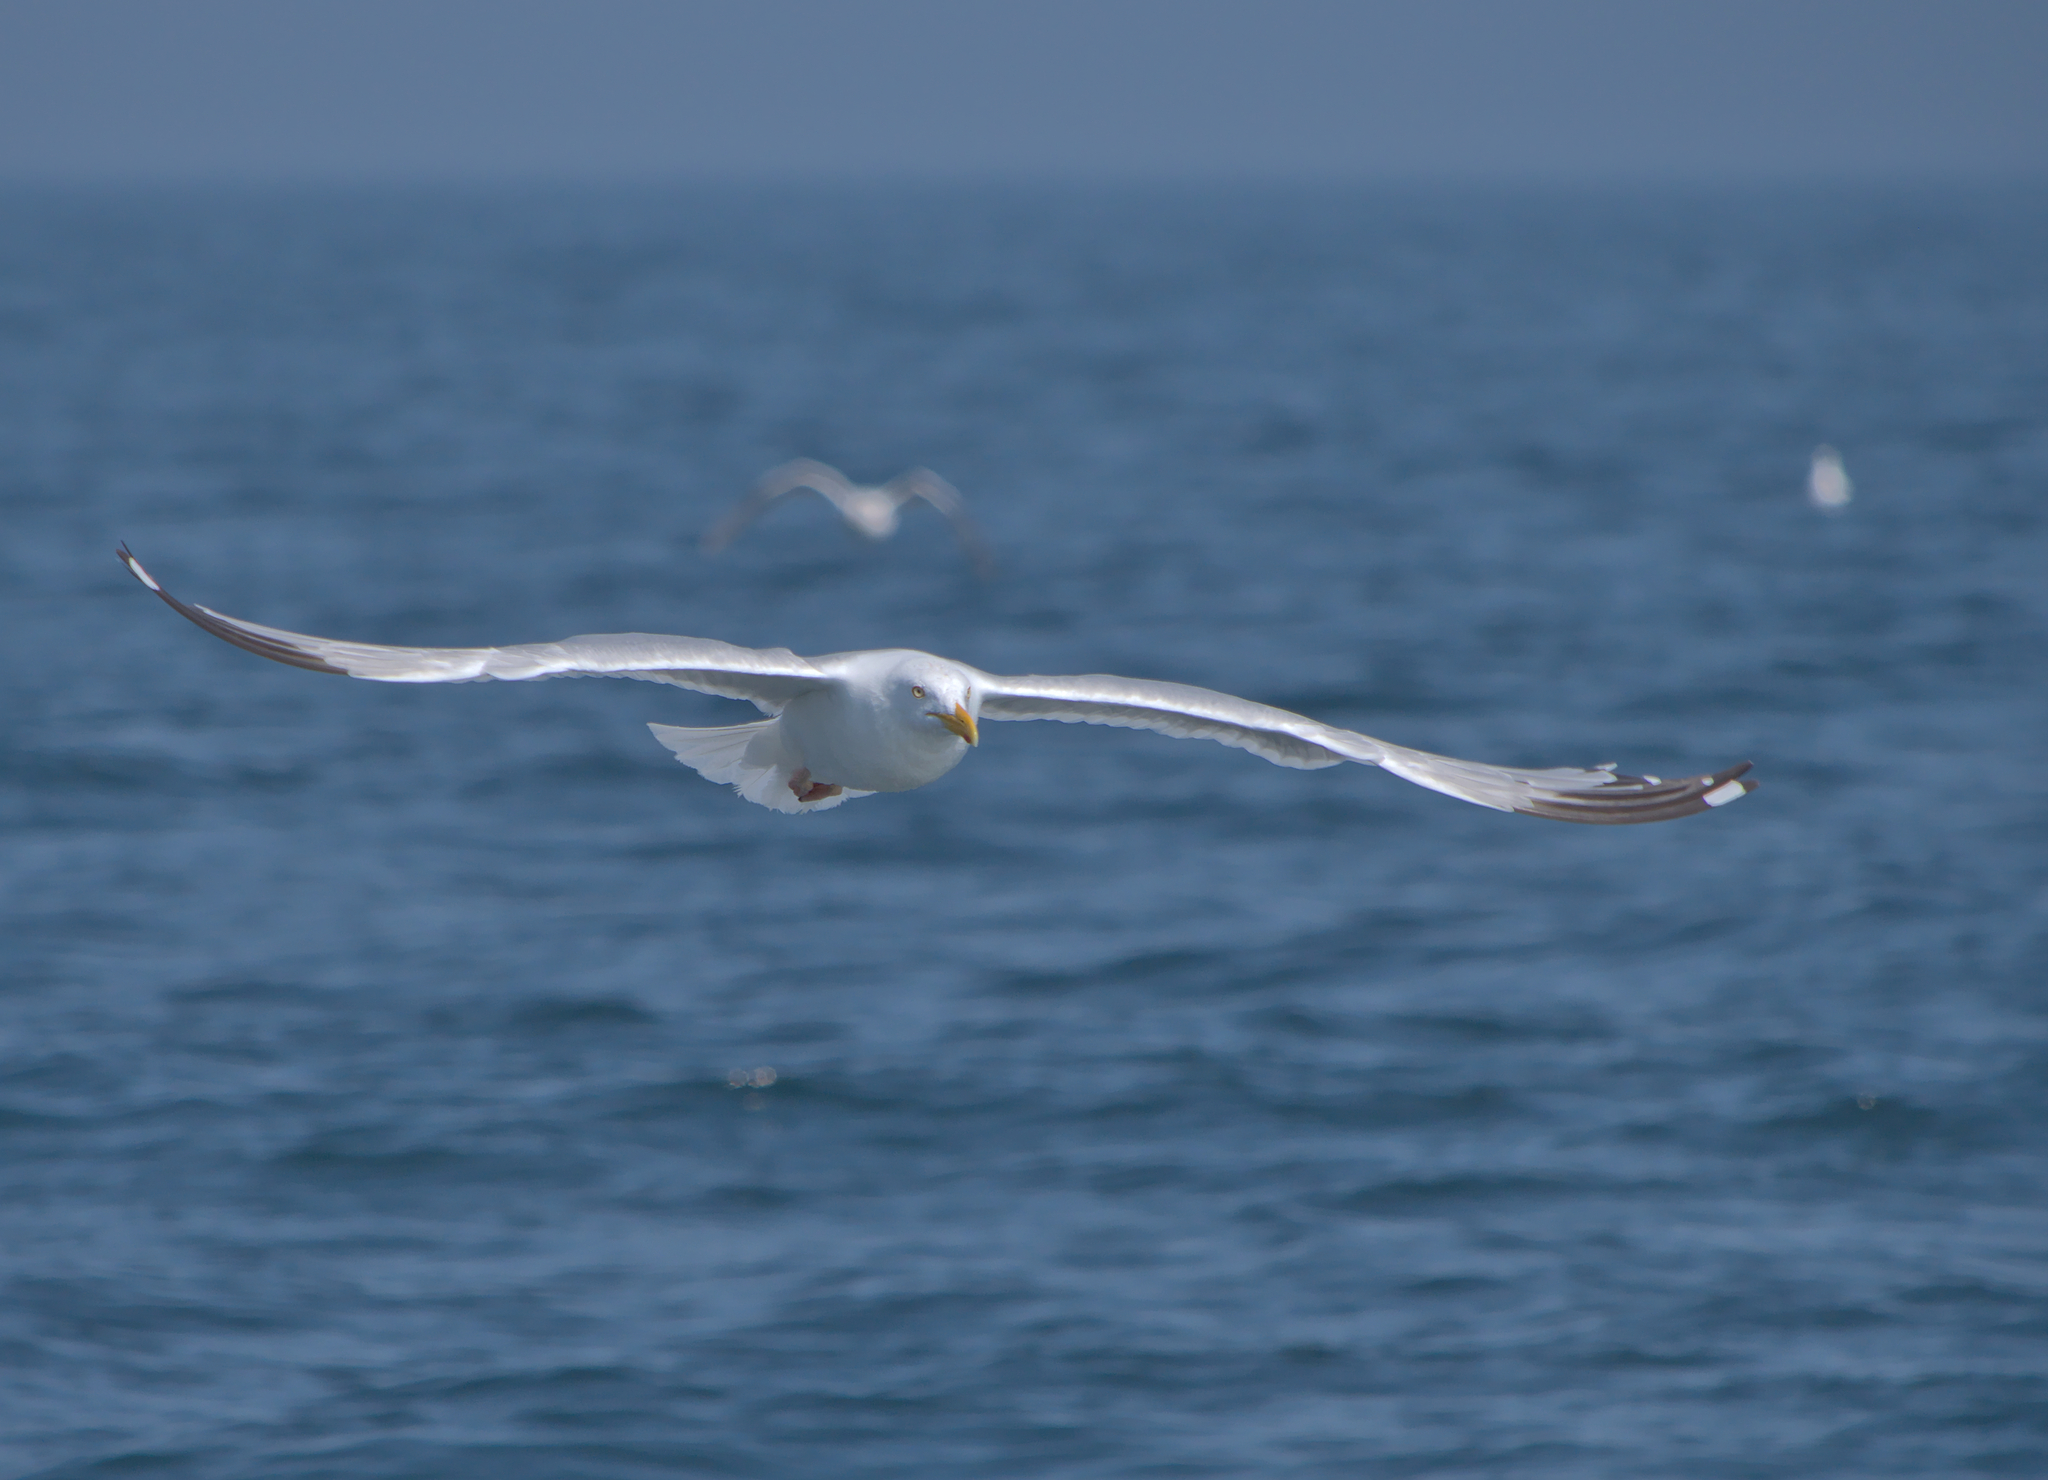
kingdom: Animalia
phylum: Chordata
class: Aves
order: Charadriiformes
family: Laridae
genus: Larus
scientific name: Larus argentatus
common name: Herring gull
